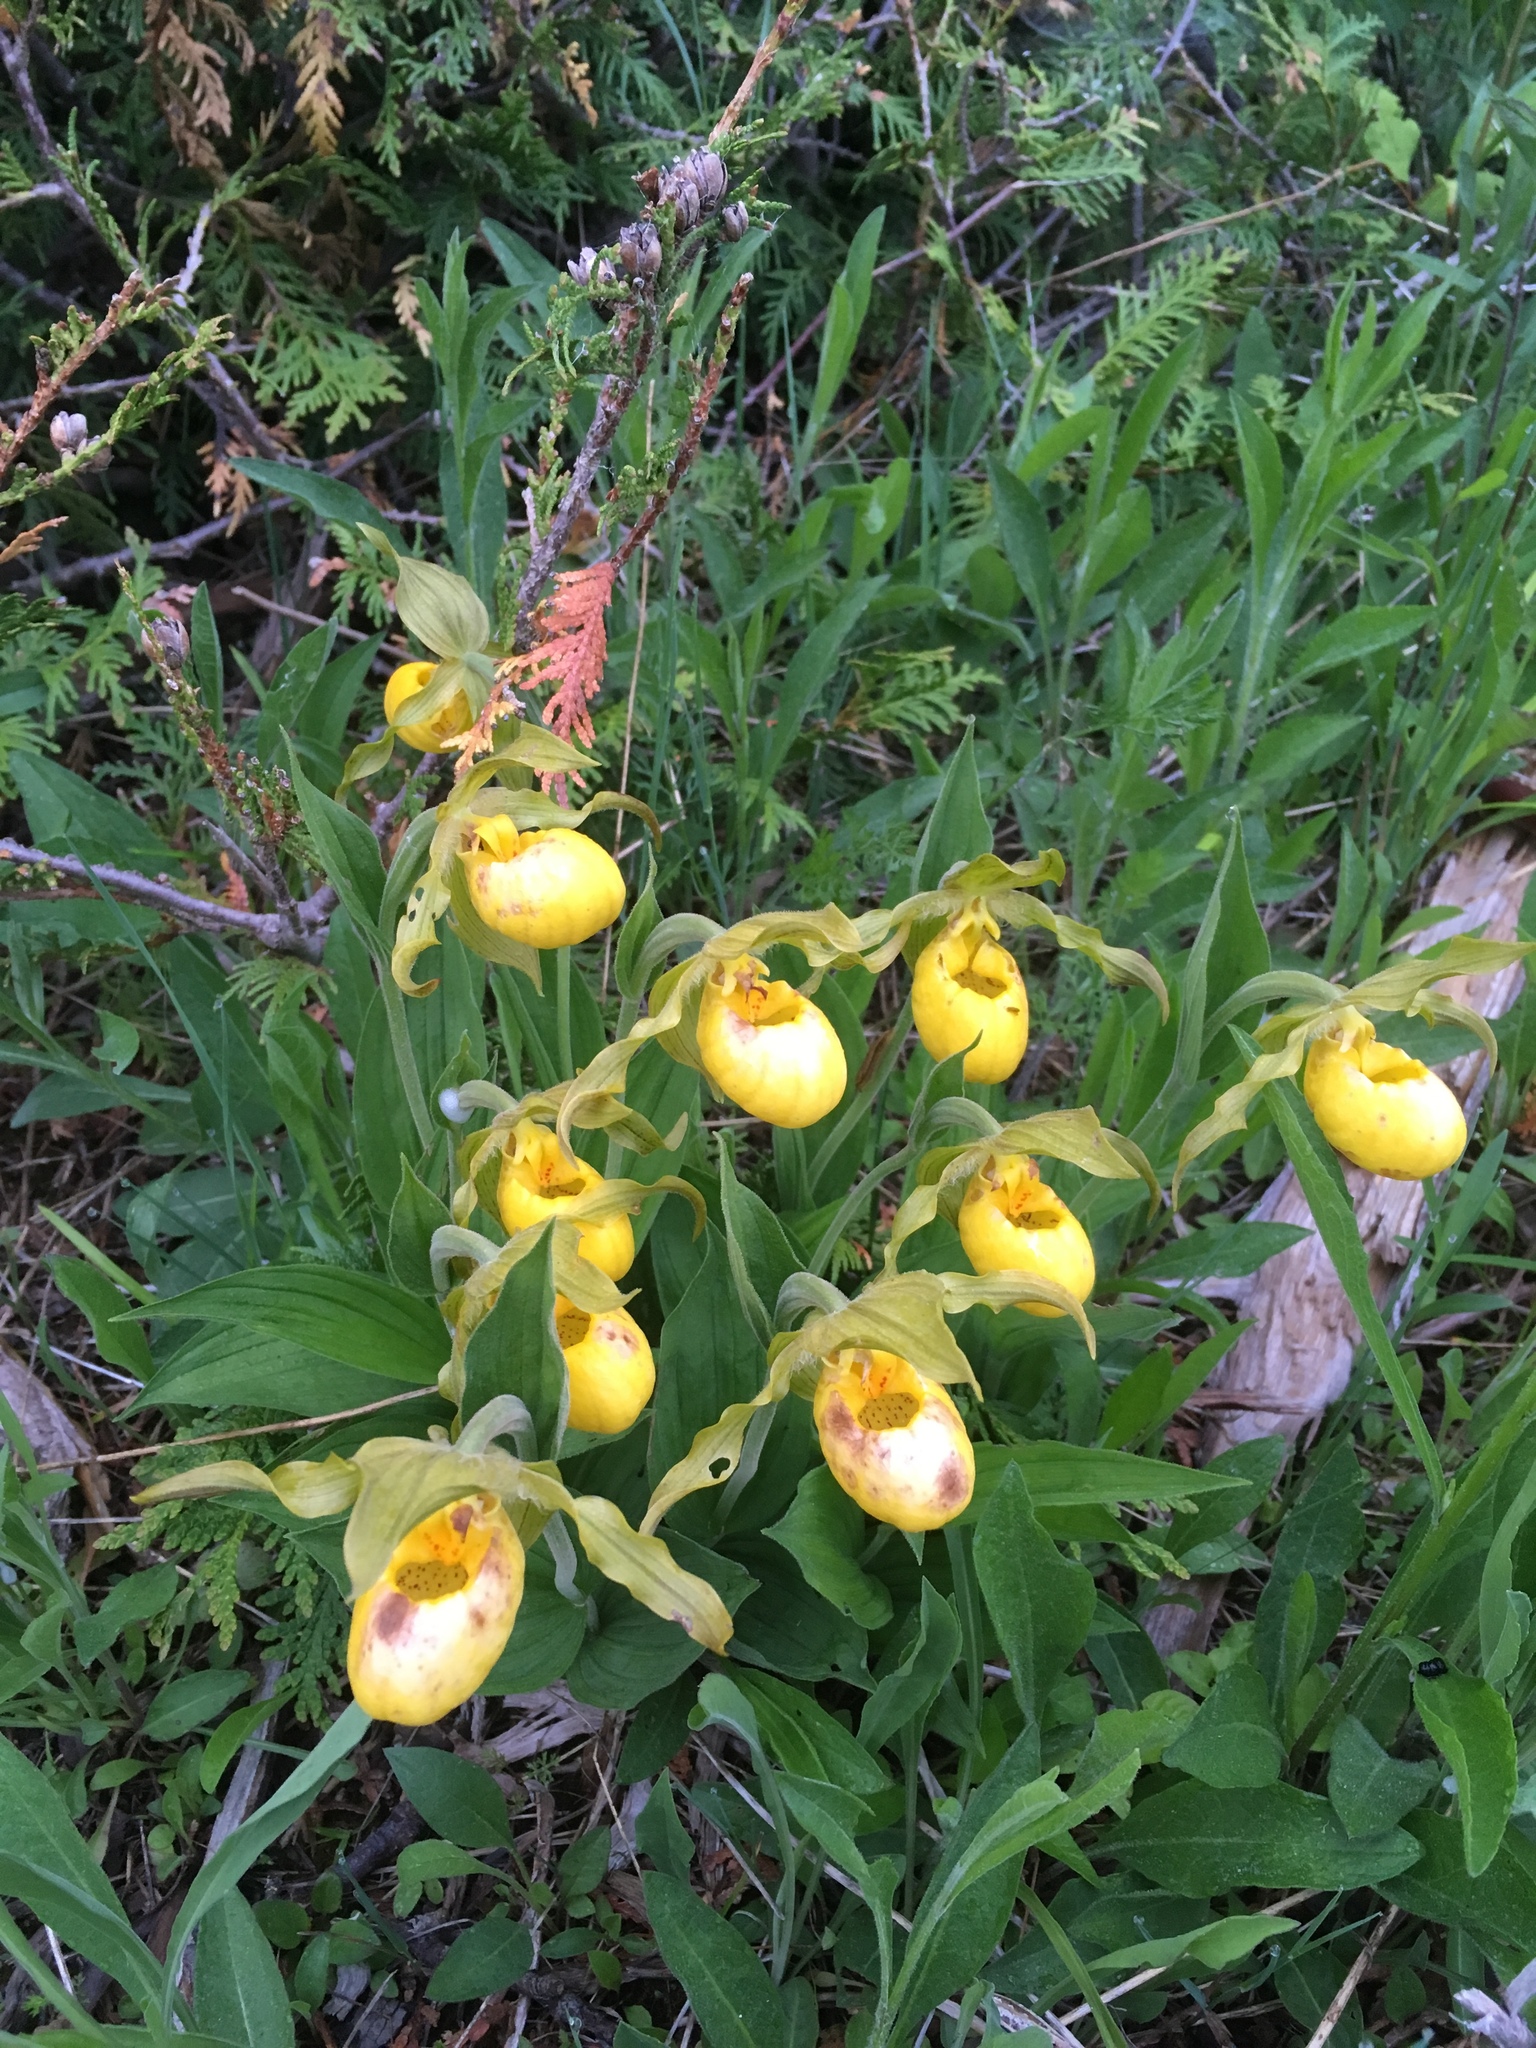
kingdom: Plantae
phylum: Tracheophyta
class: Liliopsida
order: Asparagales
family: Orchidaceae
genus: Cypripedium
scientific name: Cypripedium parviflorum
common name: American yellow lady's-slipper
